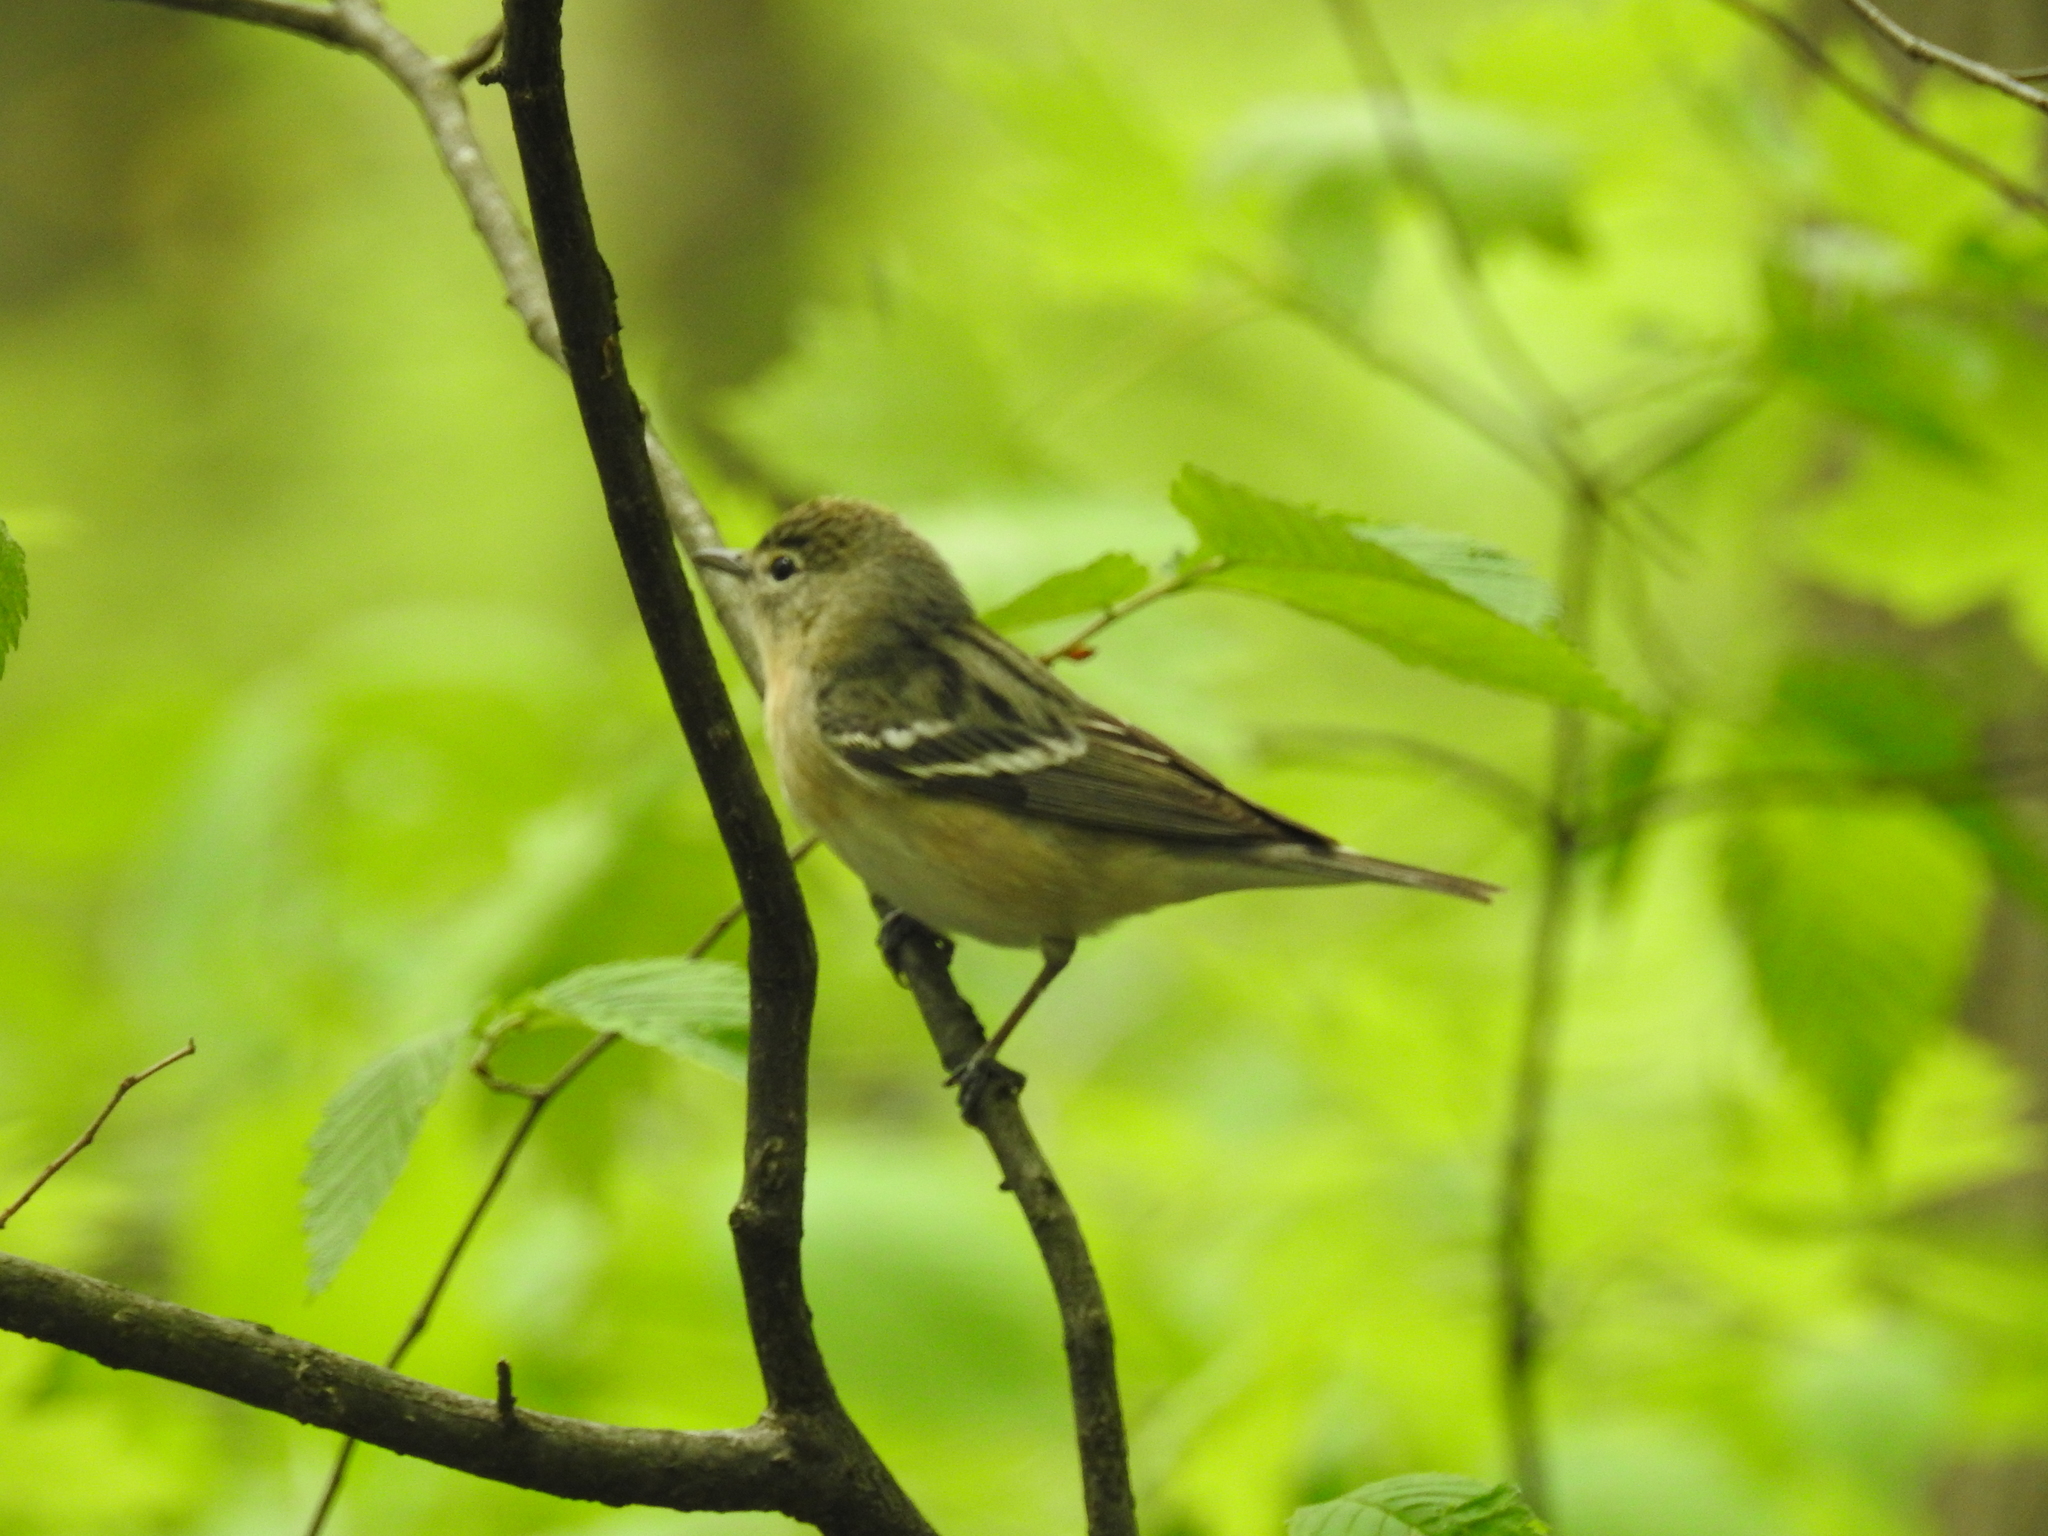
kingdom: Animalia
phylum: Chordata
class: Aves
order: Passeriformes
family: Parulidae
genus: Setophaga
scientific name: Setophaga castanea
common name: Bay-breasted warbler
